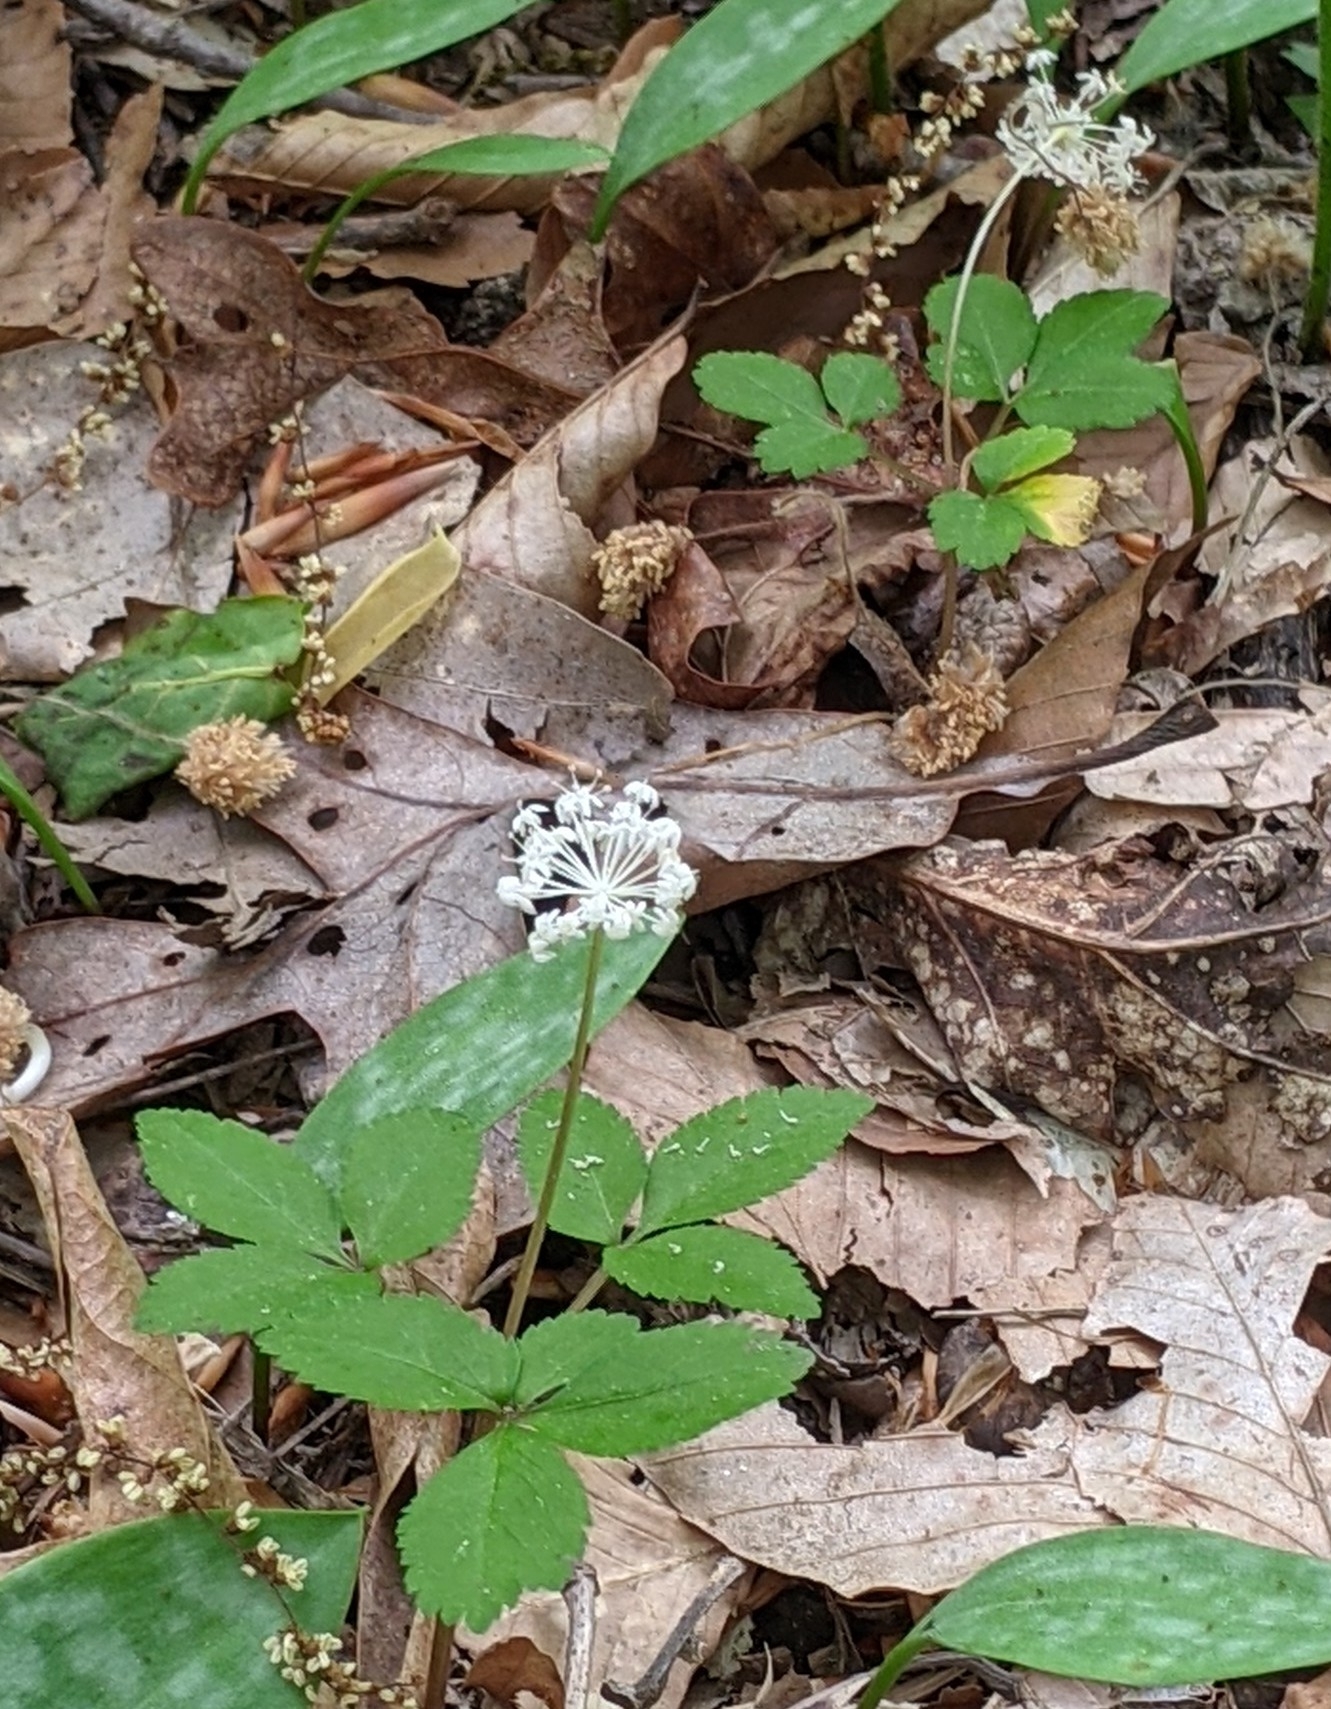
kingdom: Plantae
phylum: Tracheophyta
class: Magnoliopsida
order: Apiales
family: Araliaceae
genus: Panax
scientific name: Panax trifolius
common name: Dwarf ginseng
